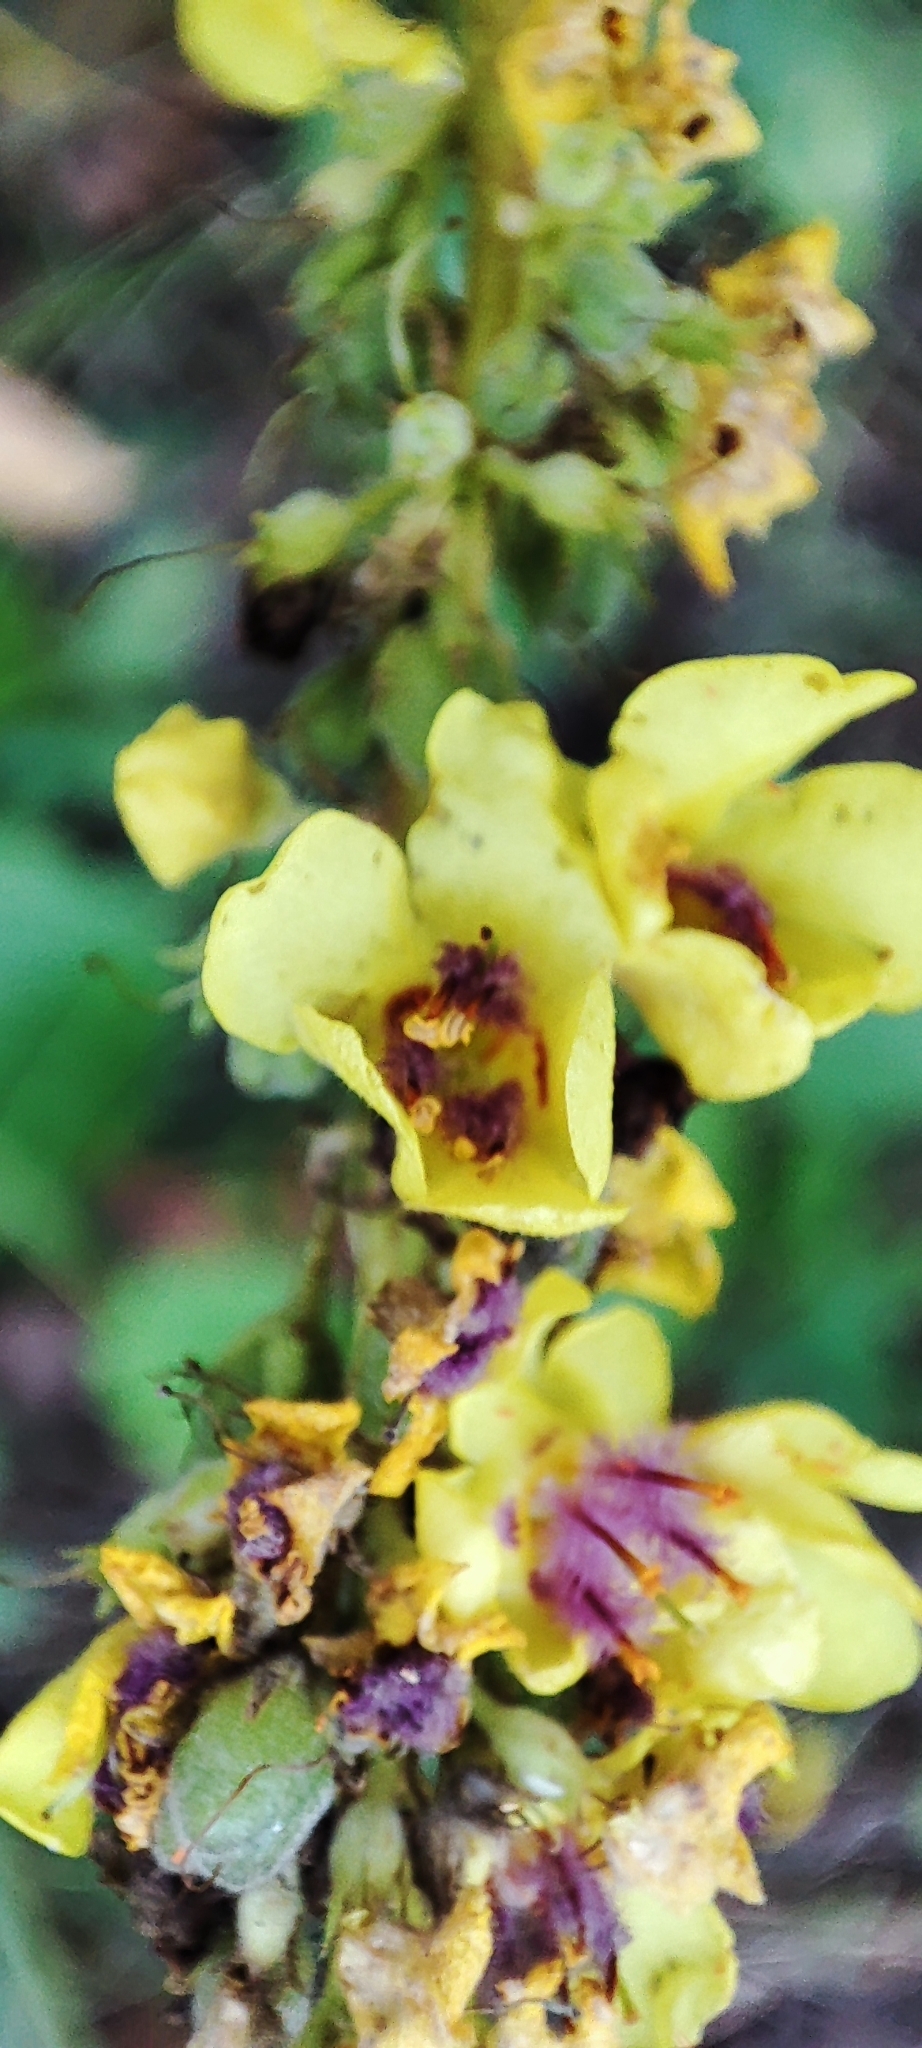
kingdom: Plantae
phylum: Tracheophyta
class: Magnoliopsida
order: Lamiales
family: Scrophulariaceae
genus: Verbascum
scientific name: Verbascum nigrum
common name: Dark mullein
